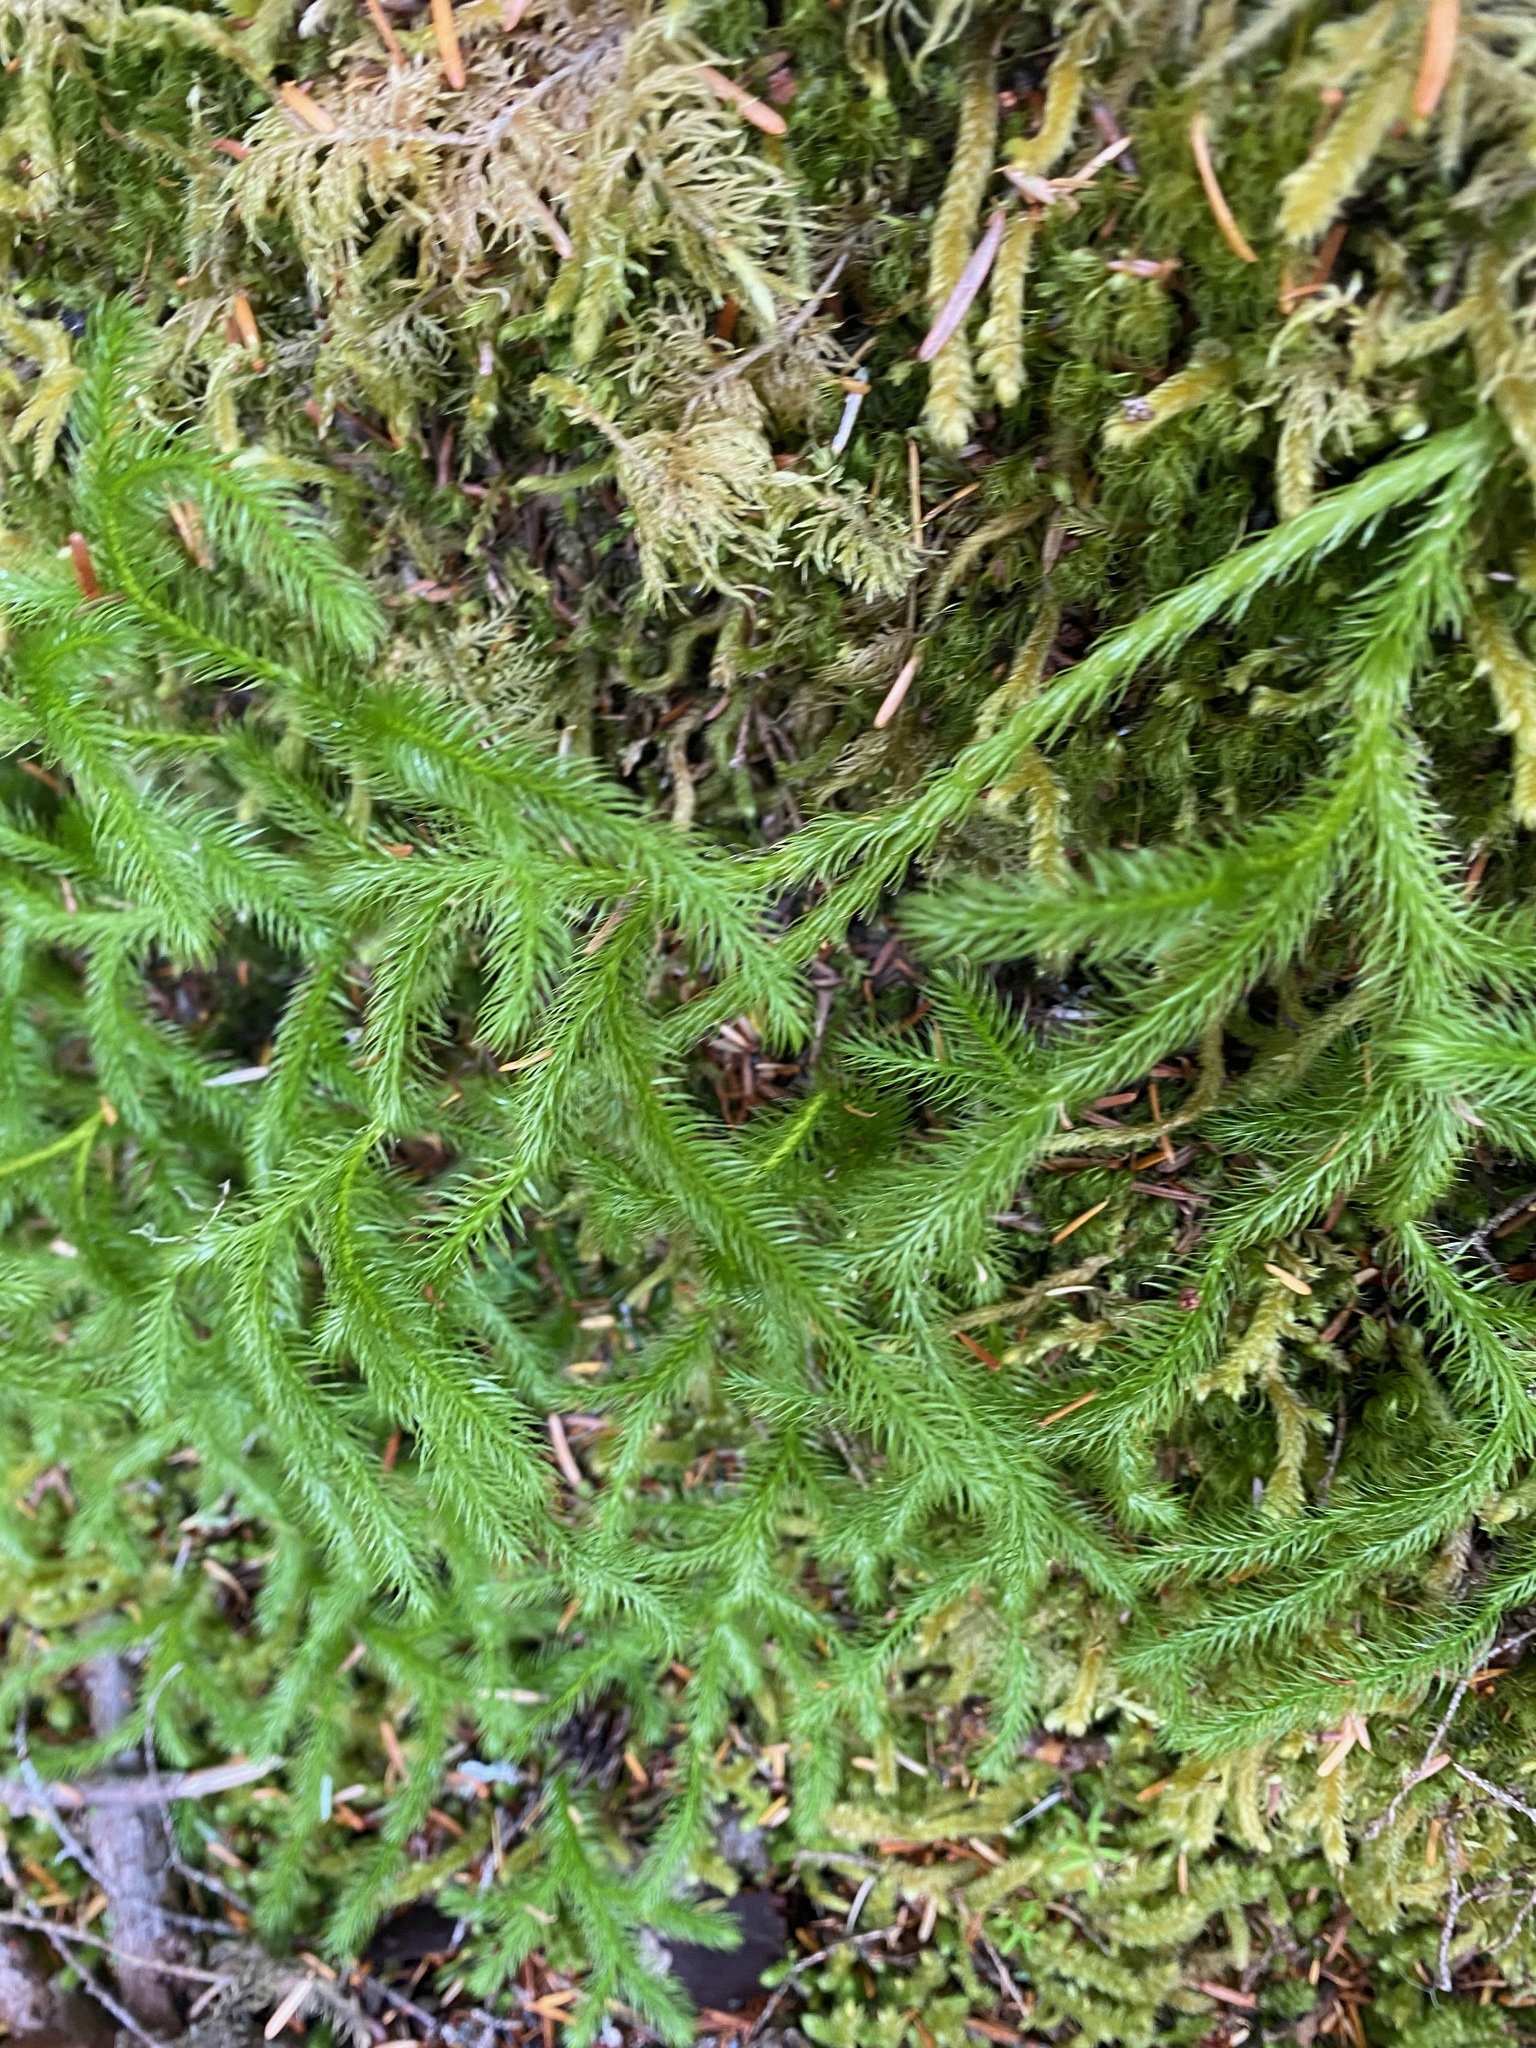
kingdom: Plantae
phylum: Tracheophyta
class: Lycopodiopsida
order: Lycopodiales
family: Lycopodiaceae
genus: Lycopodium
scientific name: Lycopodium clavatum
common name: Stag's-horn clubmoss
